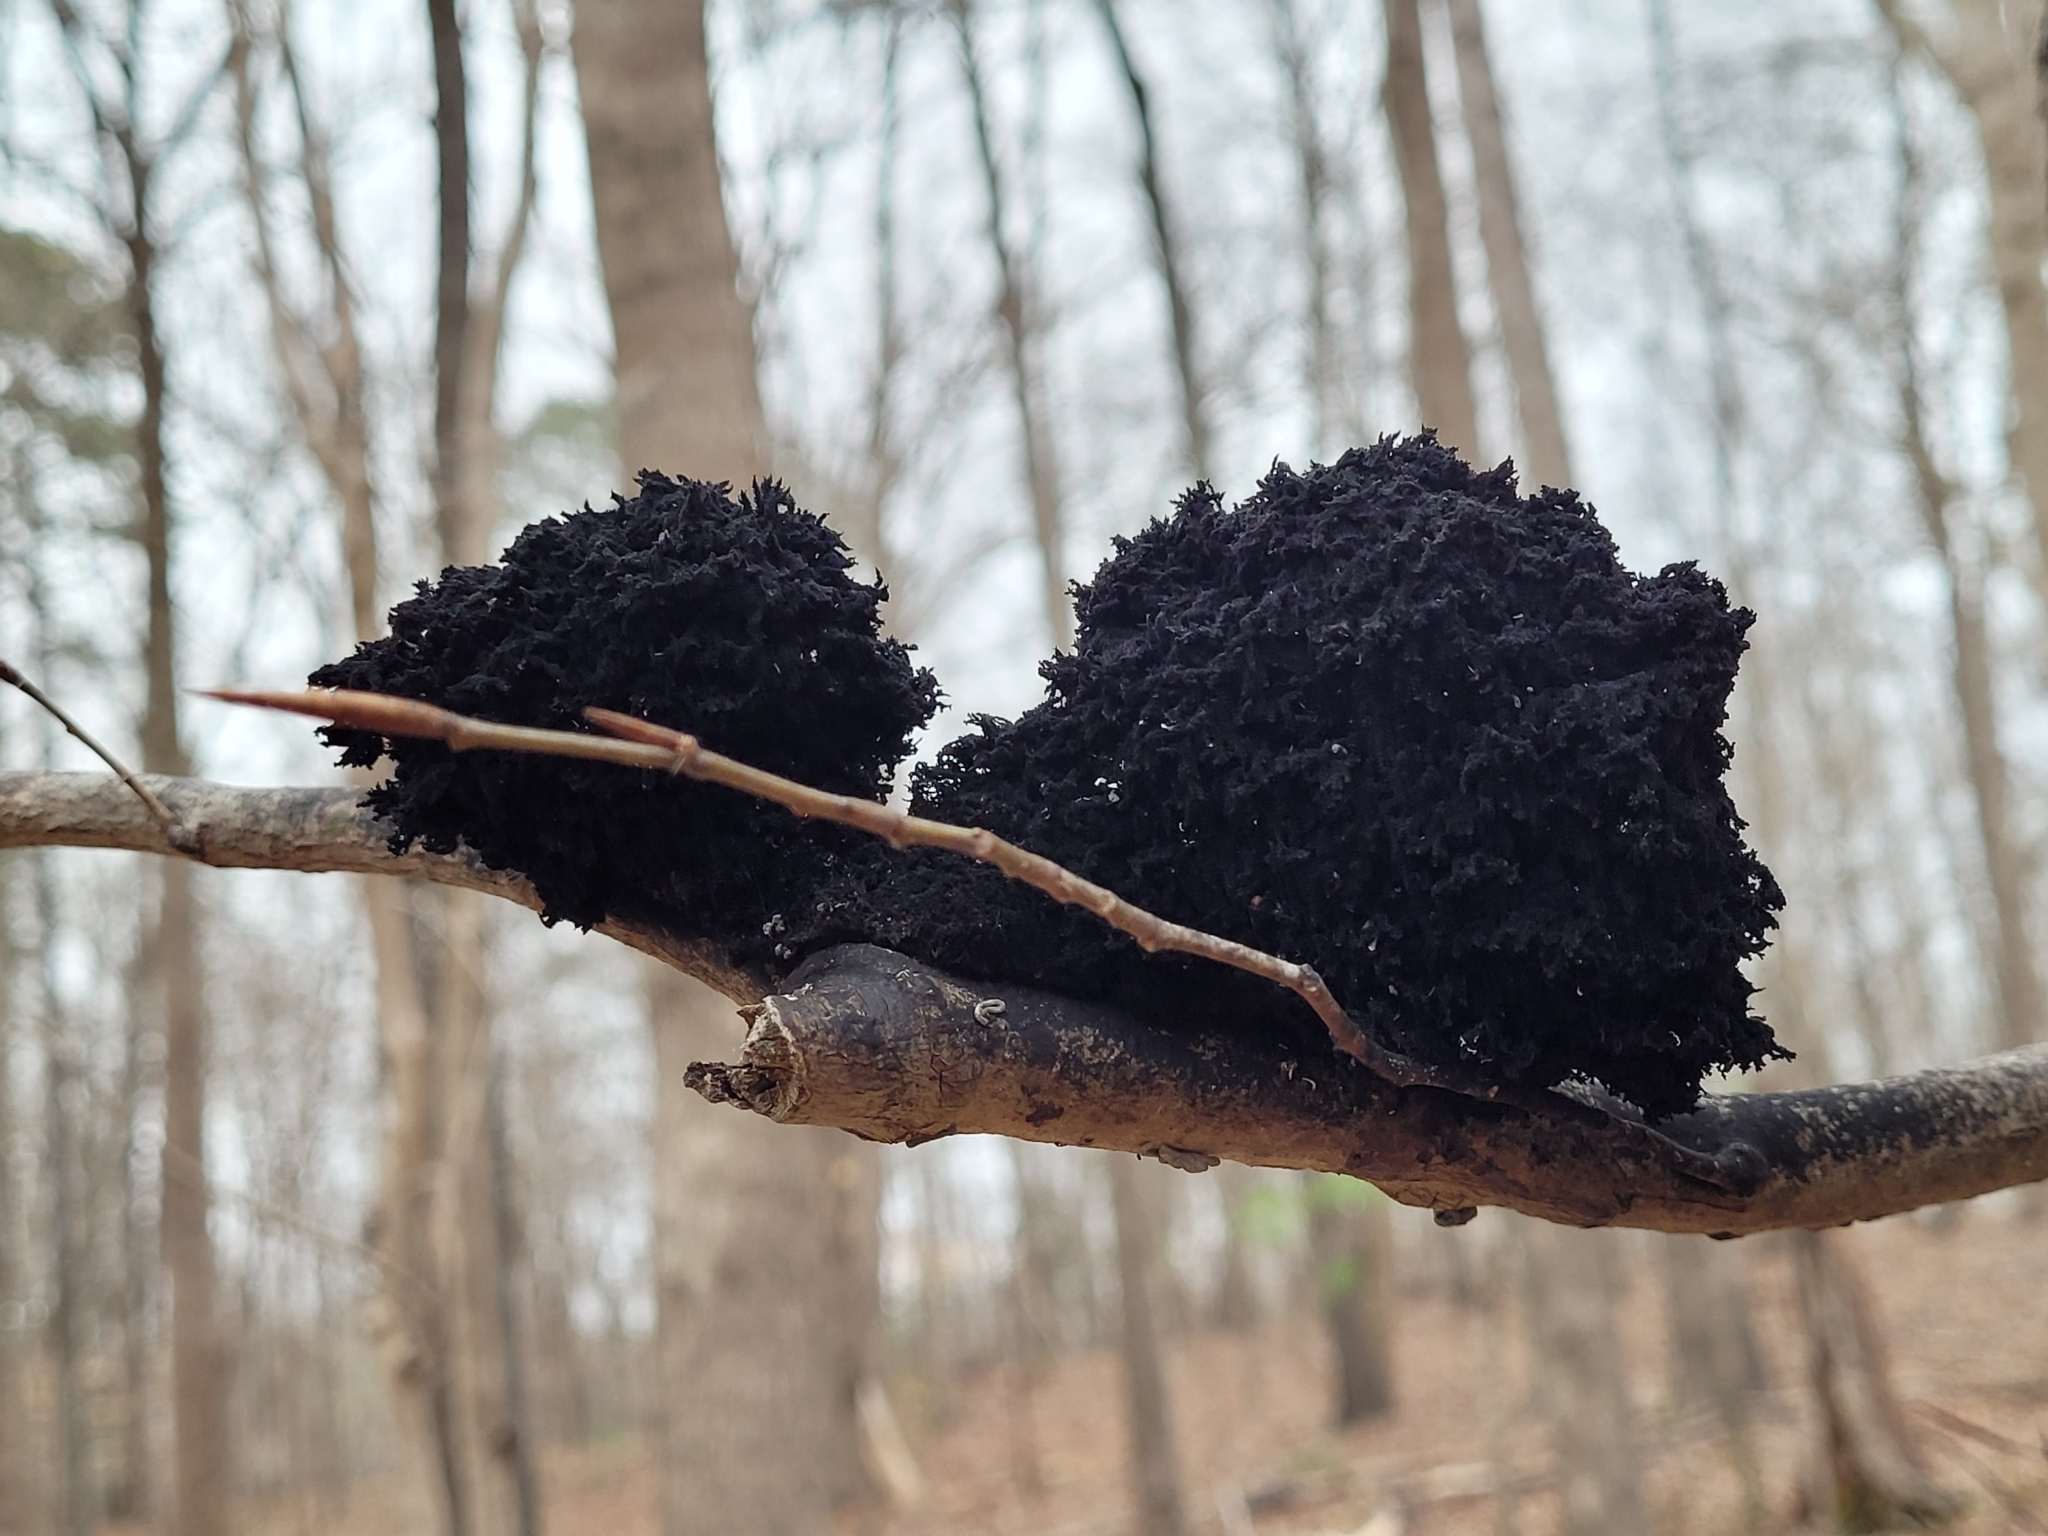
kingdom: Fungi
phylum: Ascomycota
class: Dothideomycetes
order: Capnodiales
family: Capnodiaceae
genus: Scorias
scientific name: Scorias spongiosa
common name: Black sooty mold
